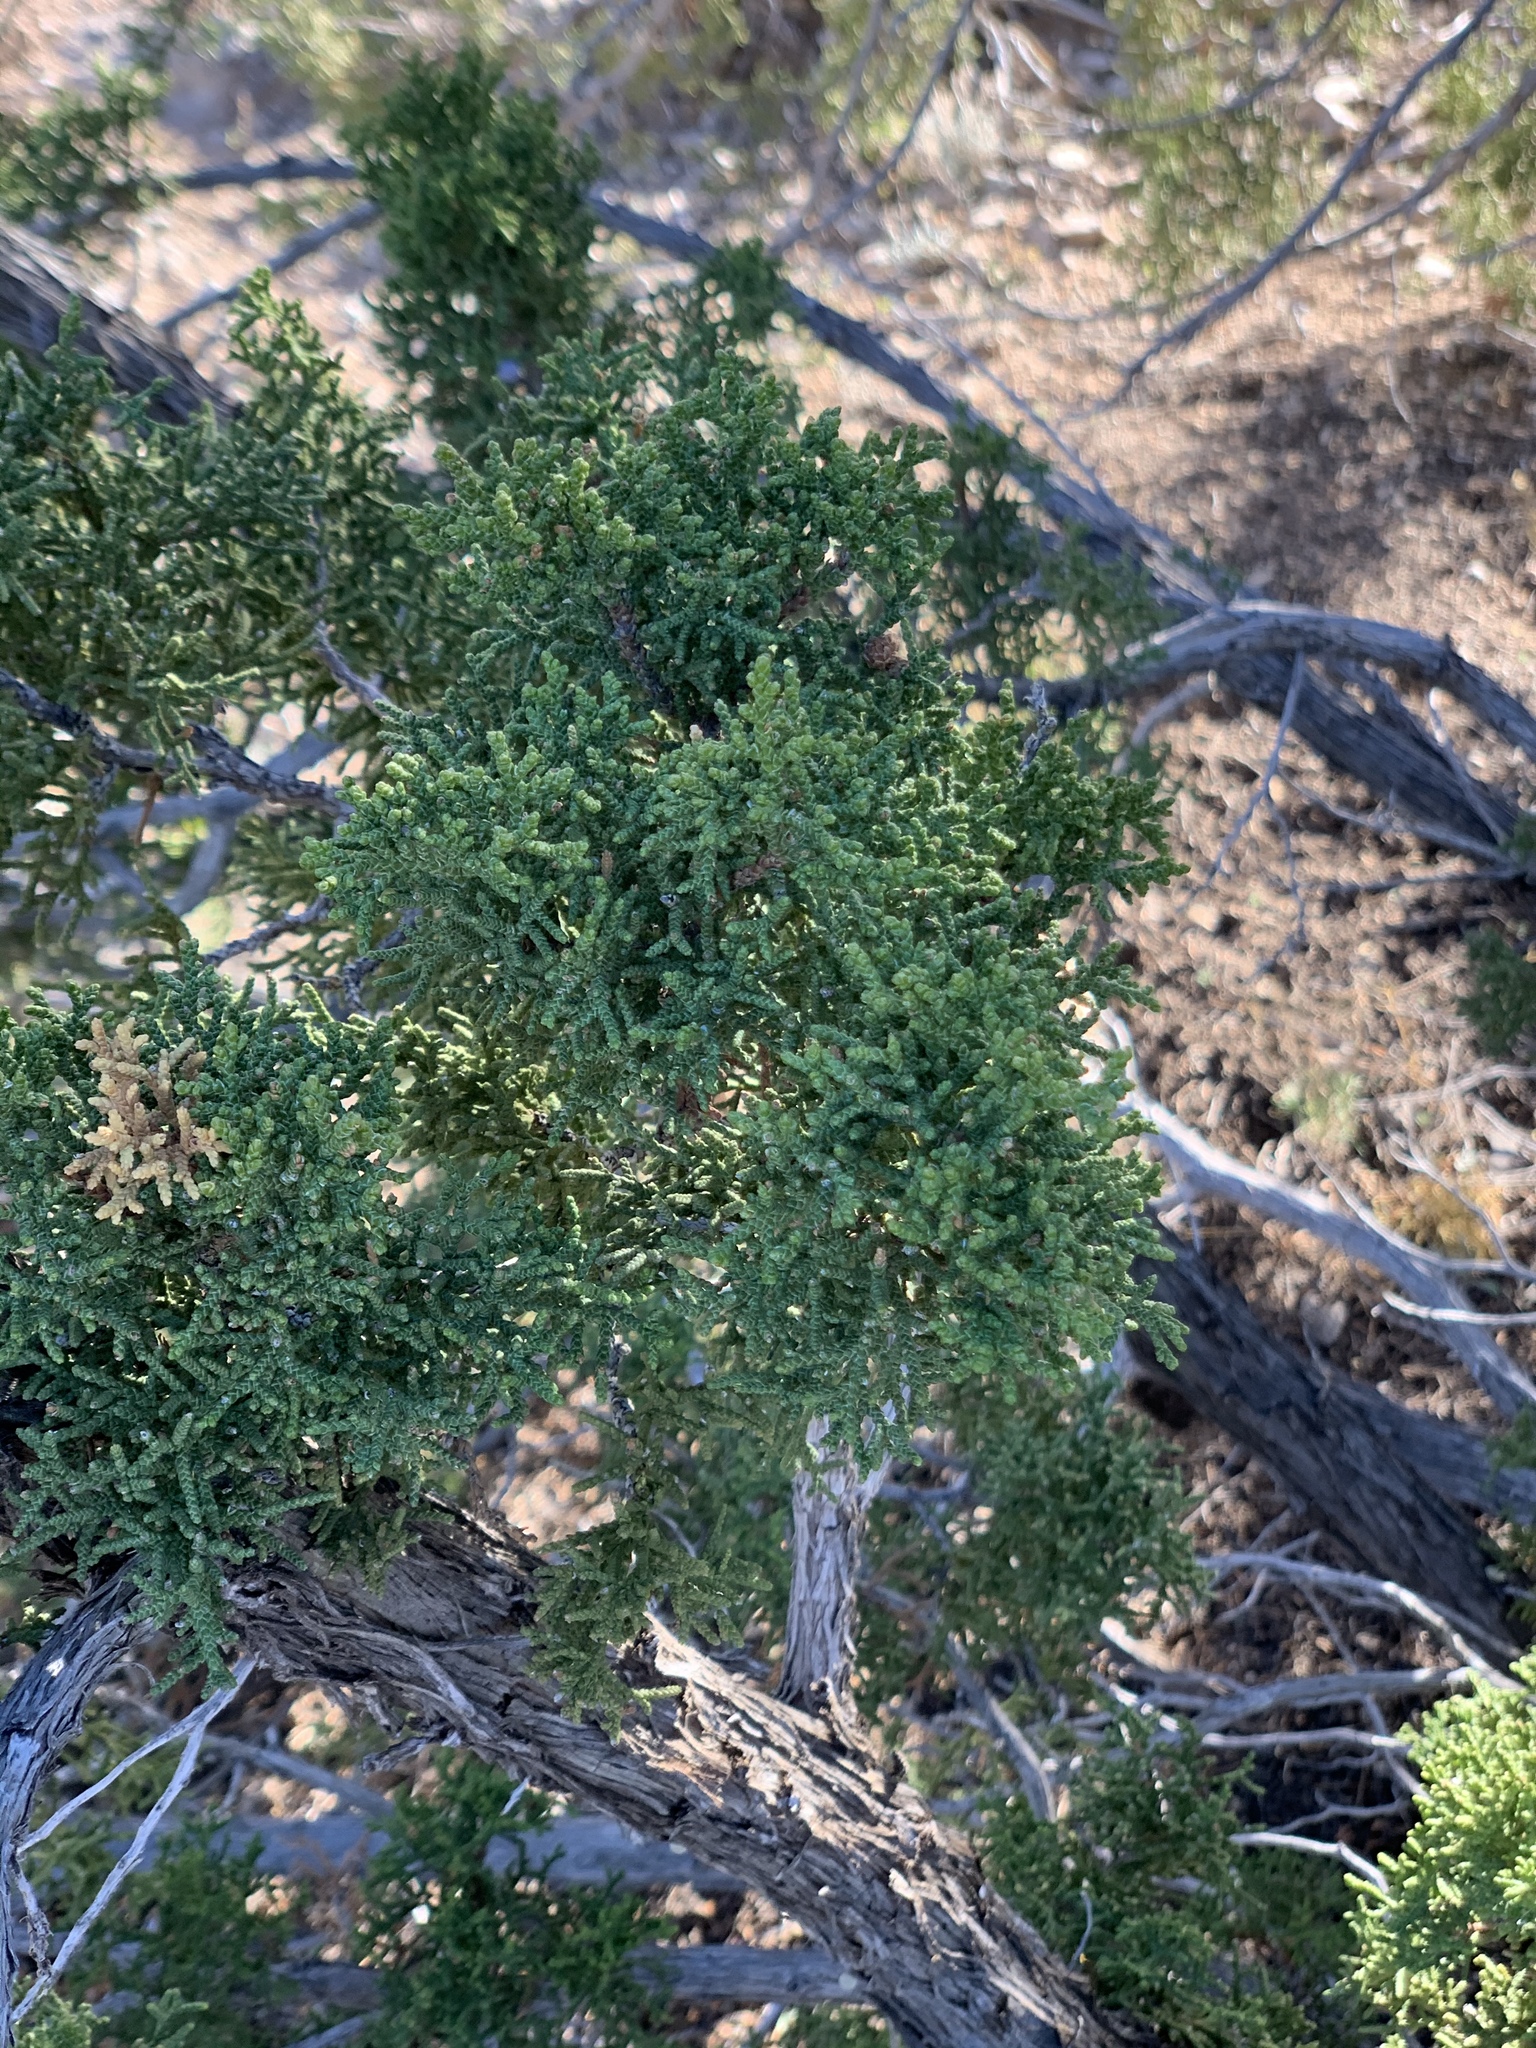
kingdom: Plantae
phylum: Tracheophyta
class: Pinopsida
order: Pinales
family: Cupressaceae
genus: Juniperus
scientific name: Juniperus monosperma
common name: One-seed juniper
